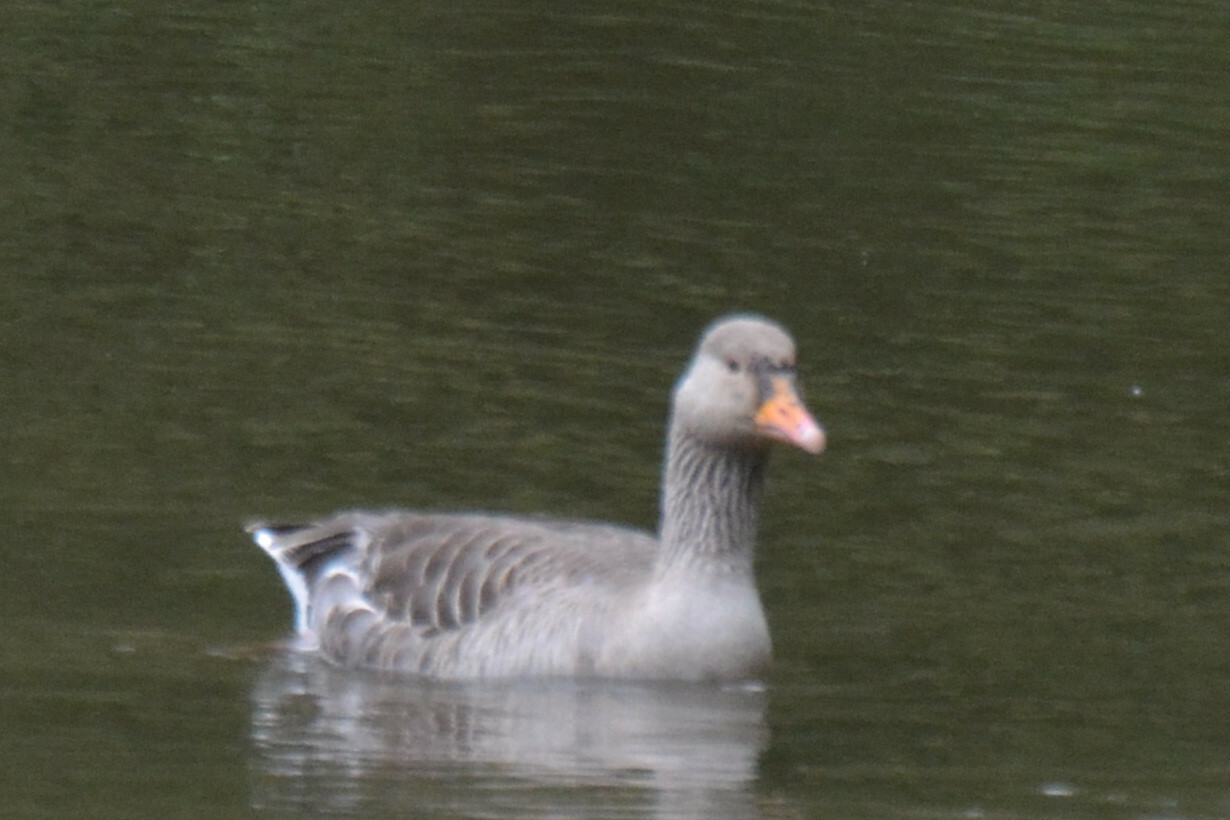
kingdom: Animalia
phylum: Chordata
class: Aves
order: Anseriformes
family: Anatidae
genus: Anser
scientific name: Anser anser
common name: Greylag goose
